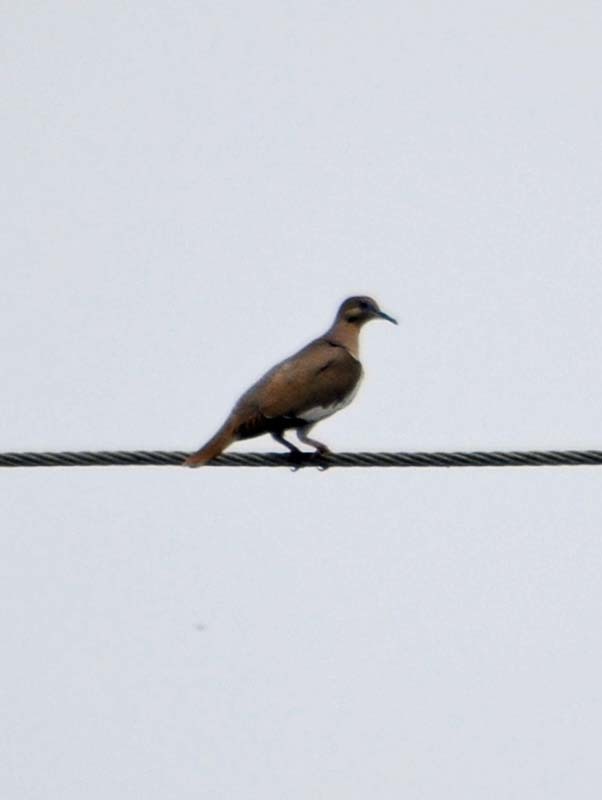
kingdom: Animalia
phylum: Chordata
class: Aves
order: Columbiformes
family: Columbidae
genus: Zenaida
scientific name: Zenaida asiatica
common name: White-winged dove
